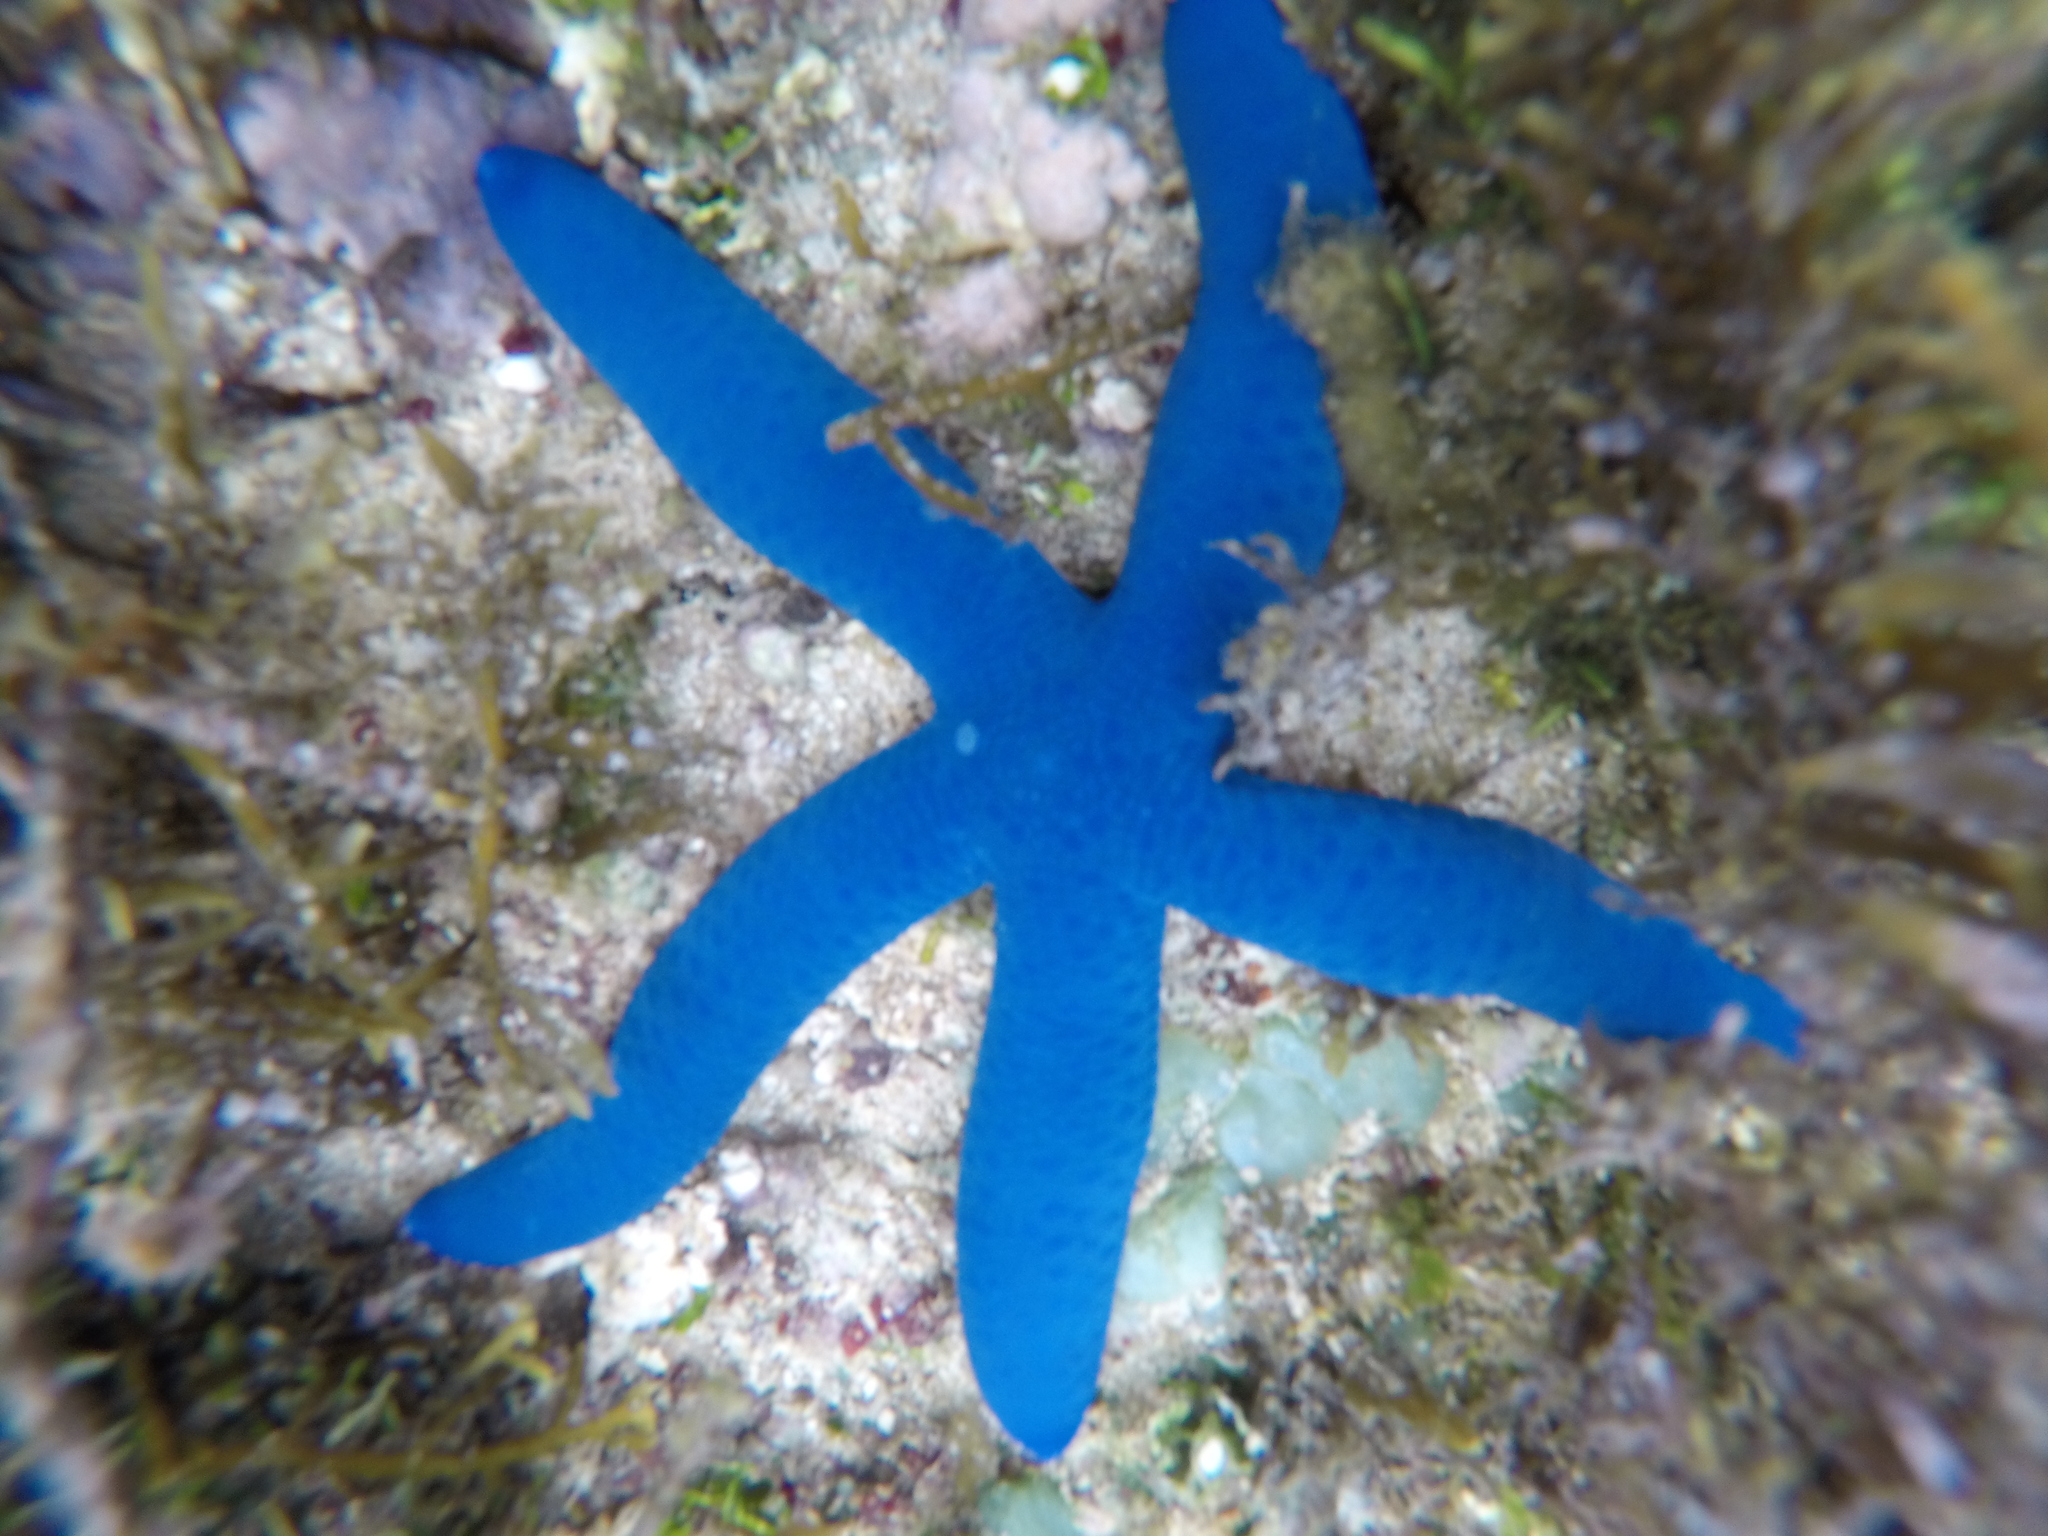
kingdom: Animalia
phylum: Echinodermata
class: Asteroidea
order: Valvatida
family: Ophidiasteridae
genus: Linckia
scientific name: Linckia laevigata
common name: Azure sea star
